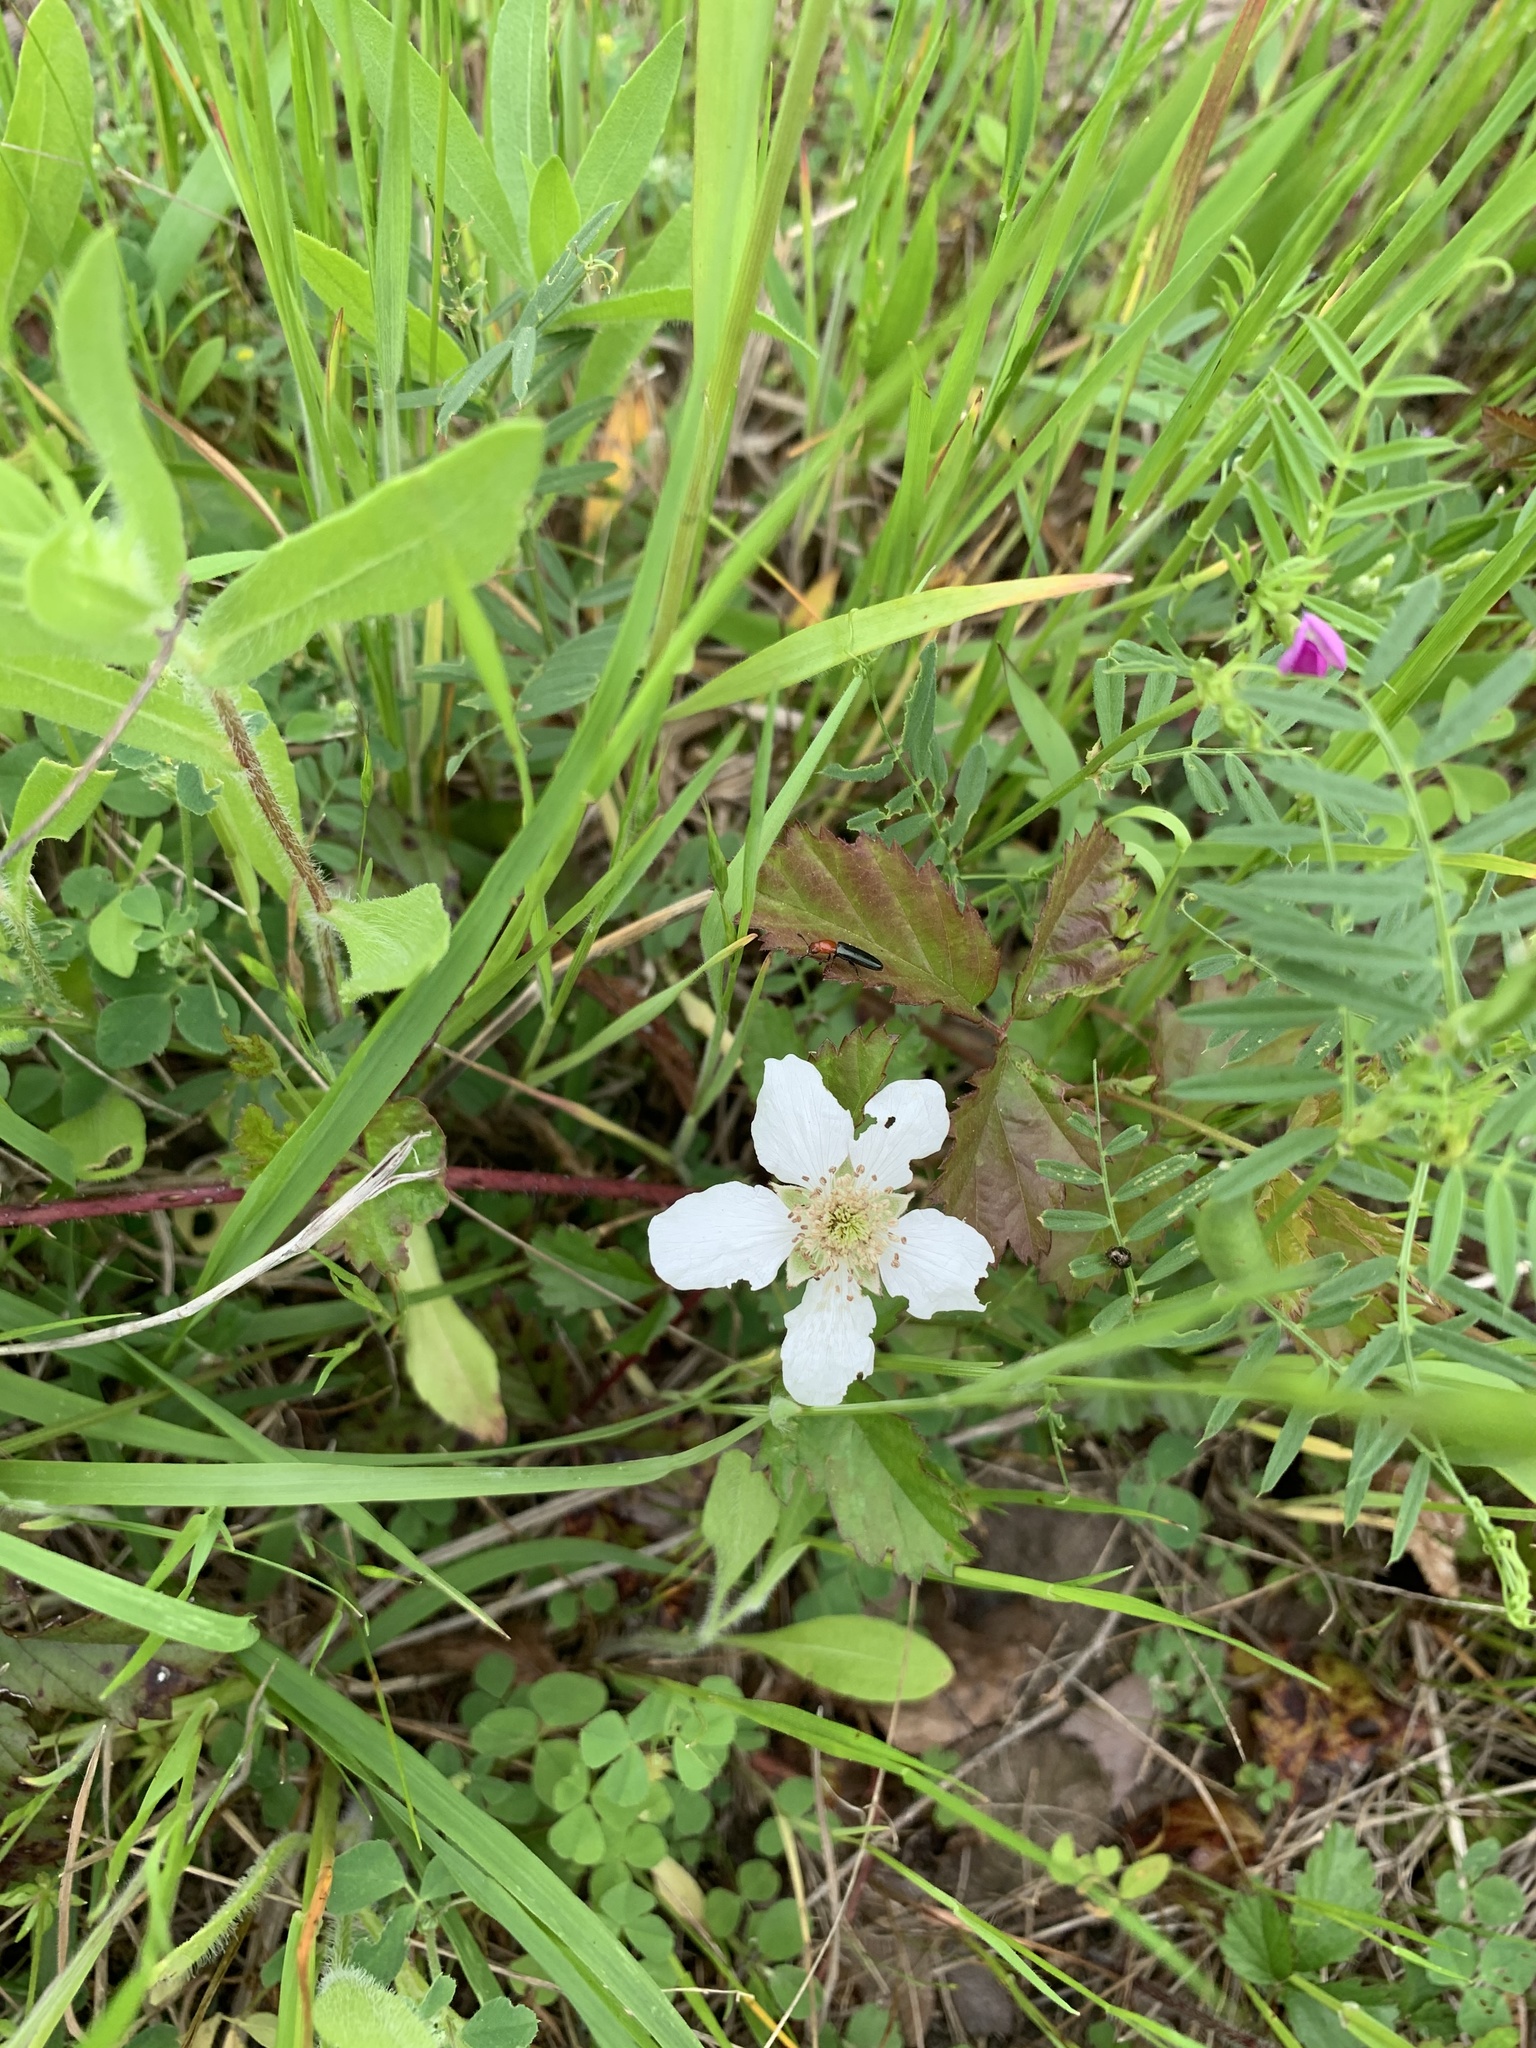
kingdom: Plantae
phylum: Tracheophyta
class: Magnoliopsida
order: Rosales
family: Rosaceae
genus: Rubus
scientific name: Rubus trivialis
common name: Southern dewberry
